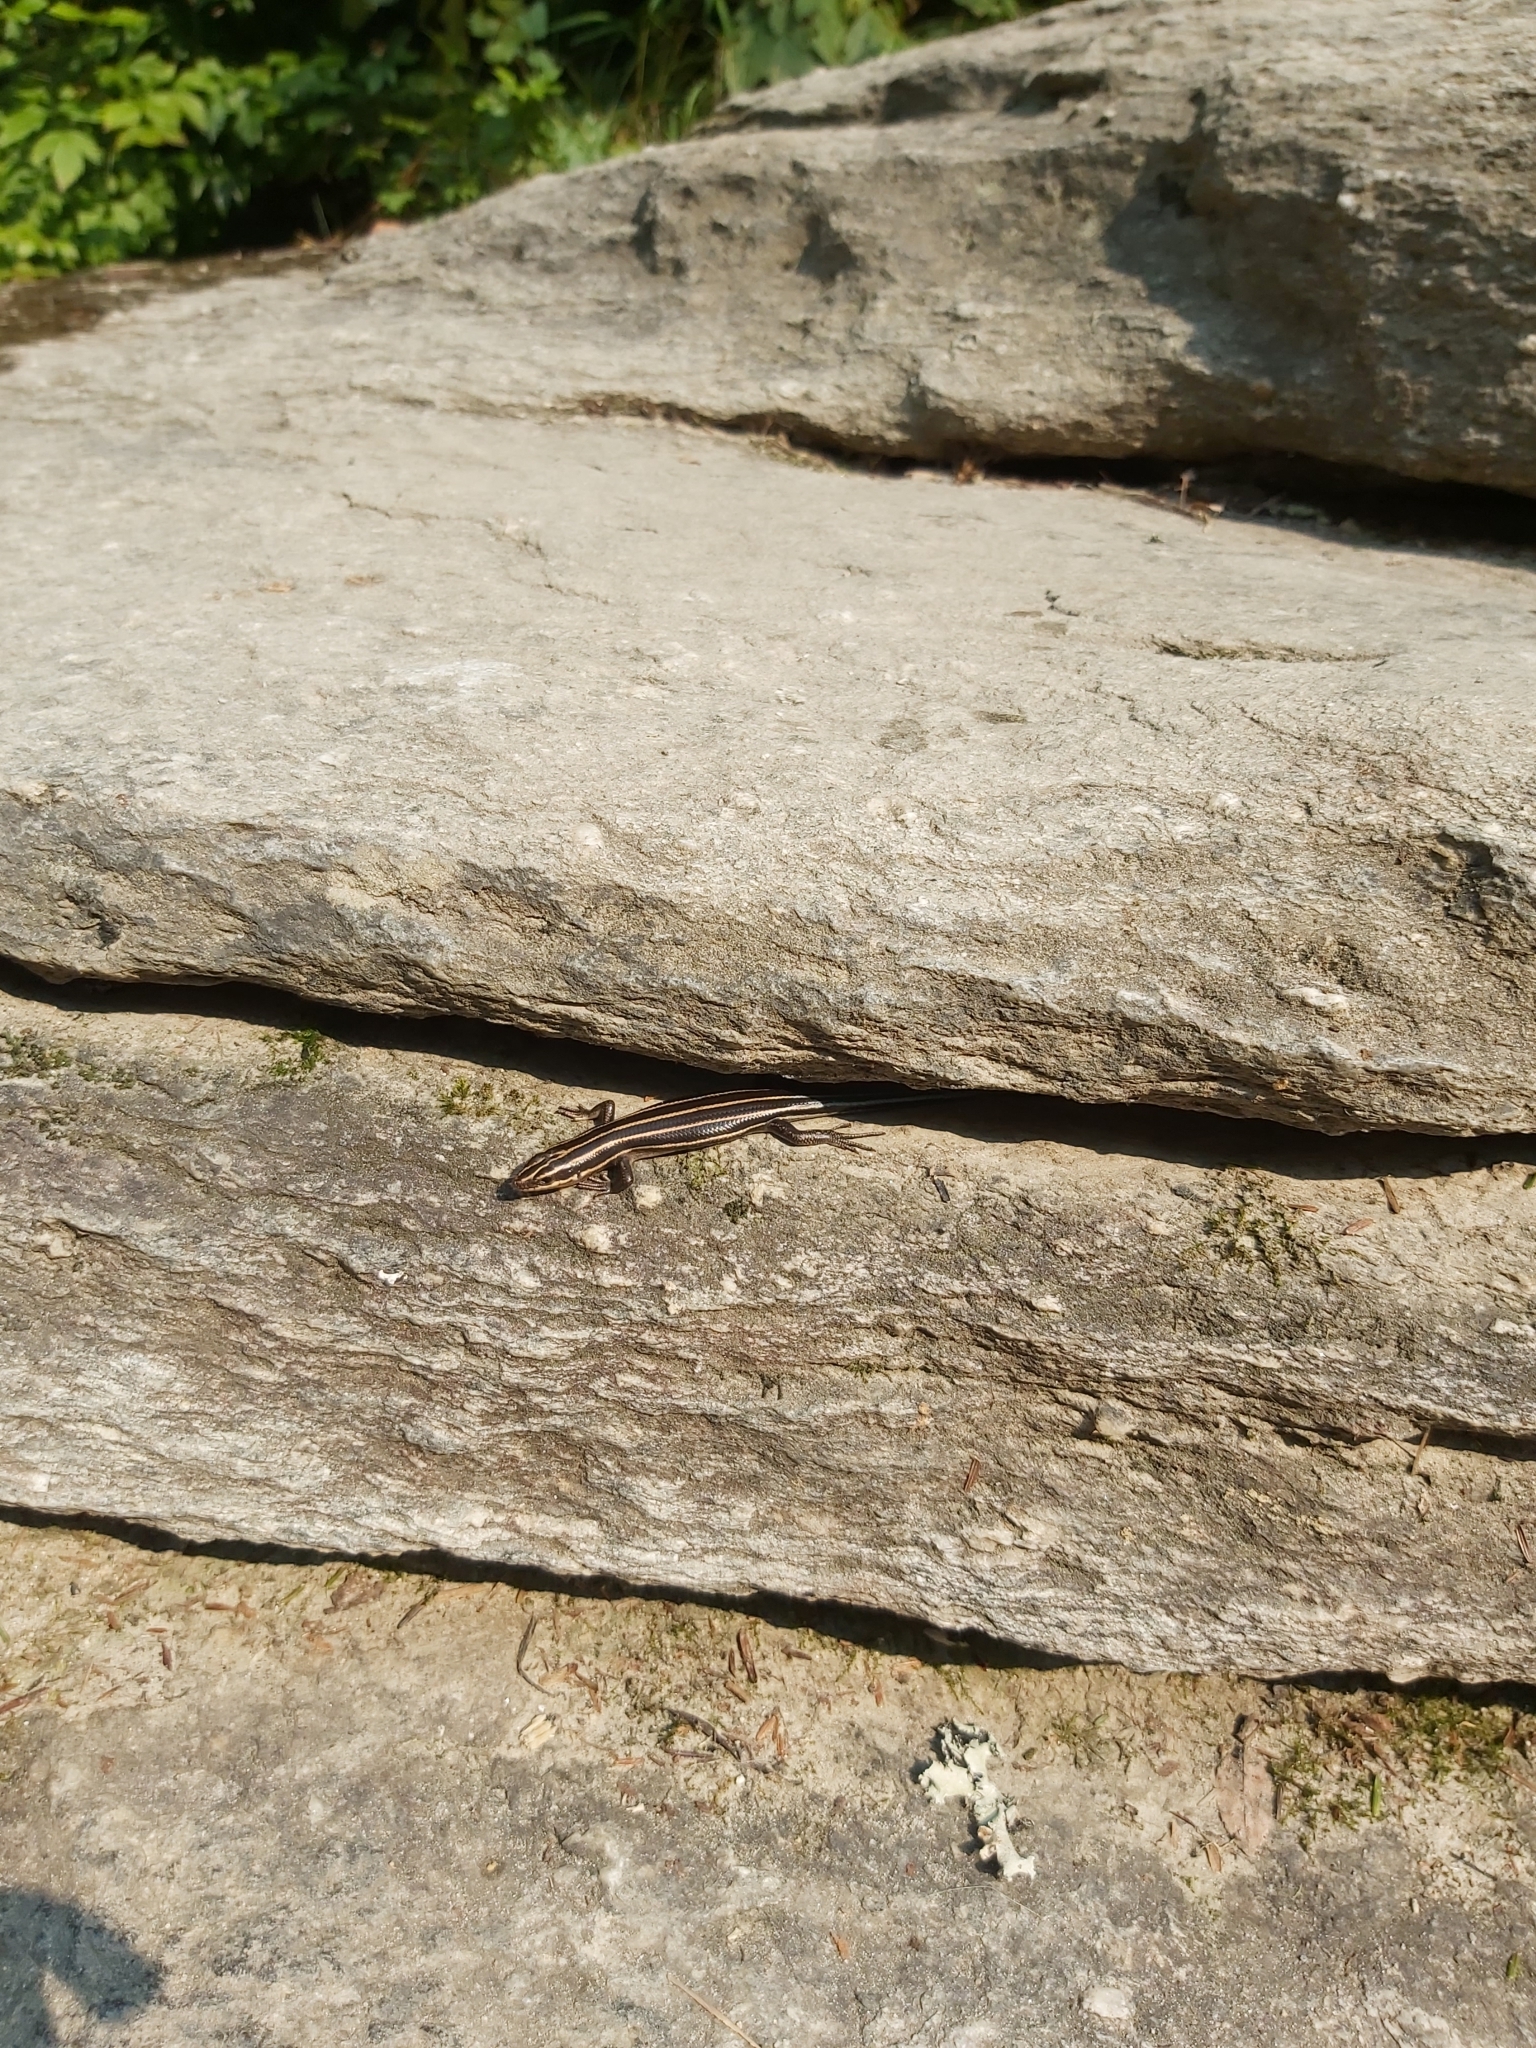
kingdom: Animalia
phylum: Chordata
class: Squamata
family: Scincidae
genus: Plestiodon
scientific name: Plestiodon fasciatus
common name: Five-lined skink
